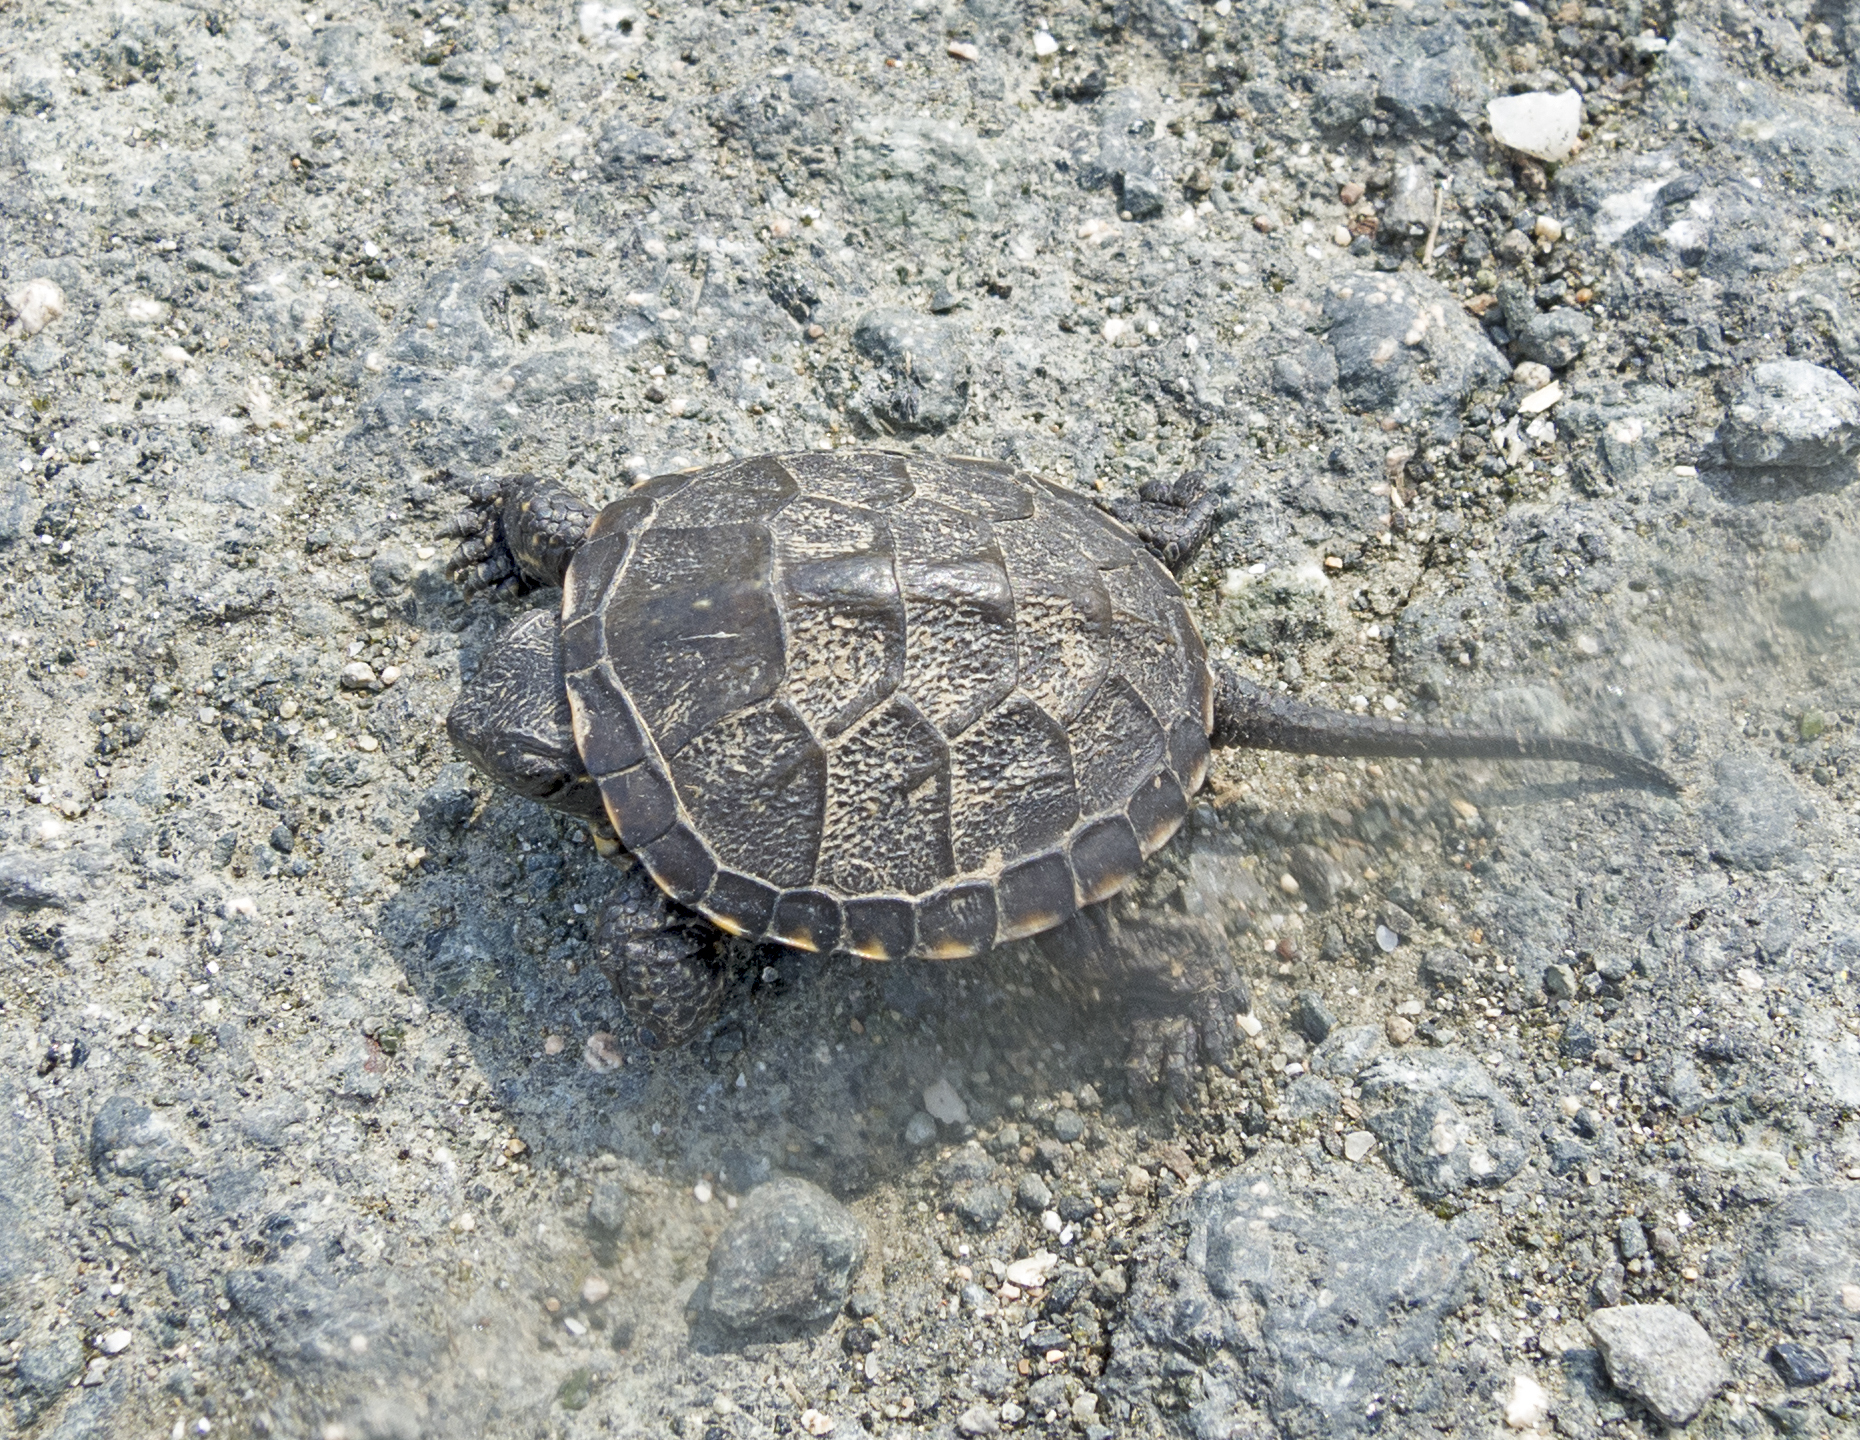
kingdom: Animalia
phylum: Chordata
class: Testudines
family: Emydidae
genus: Emys
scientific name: Emys orbicularis
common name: European pond turtle
